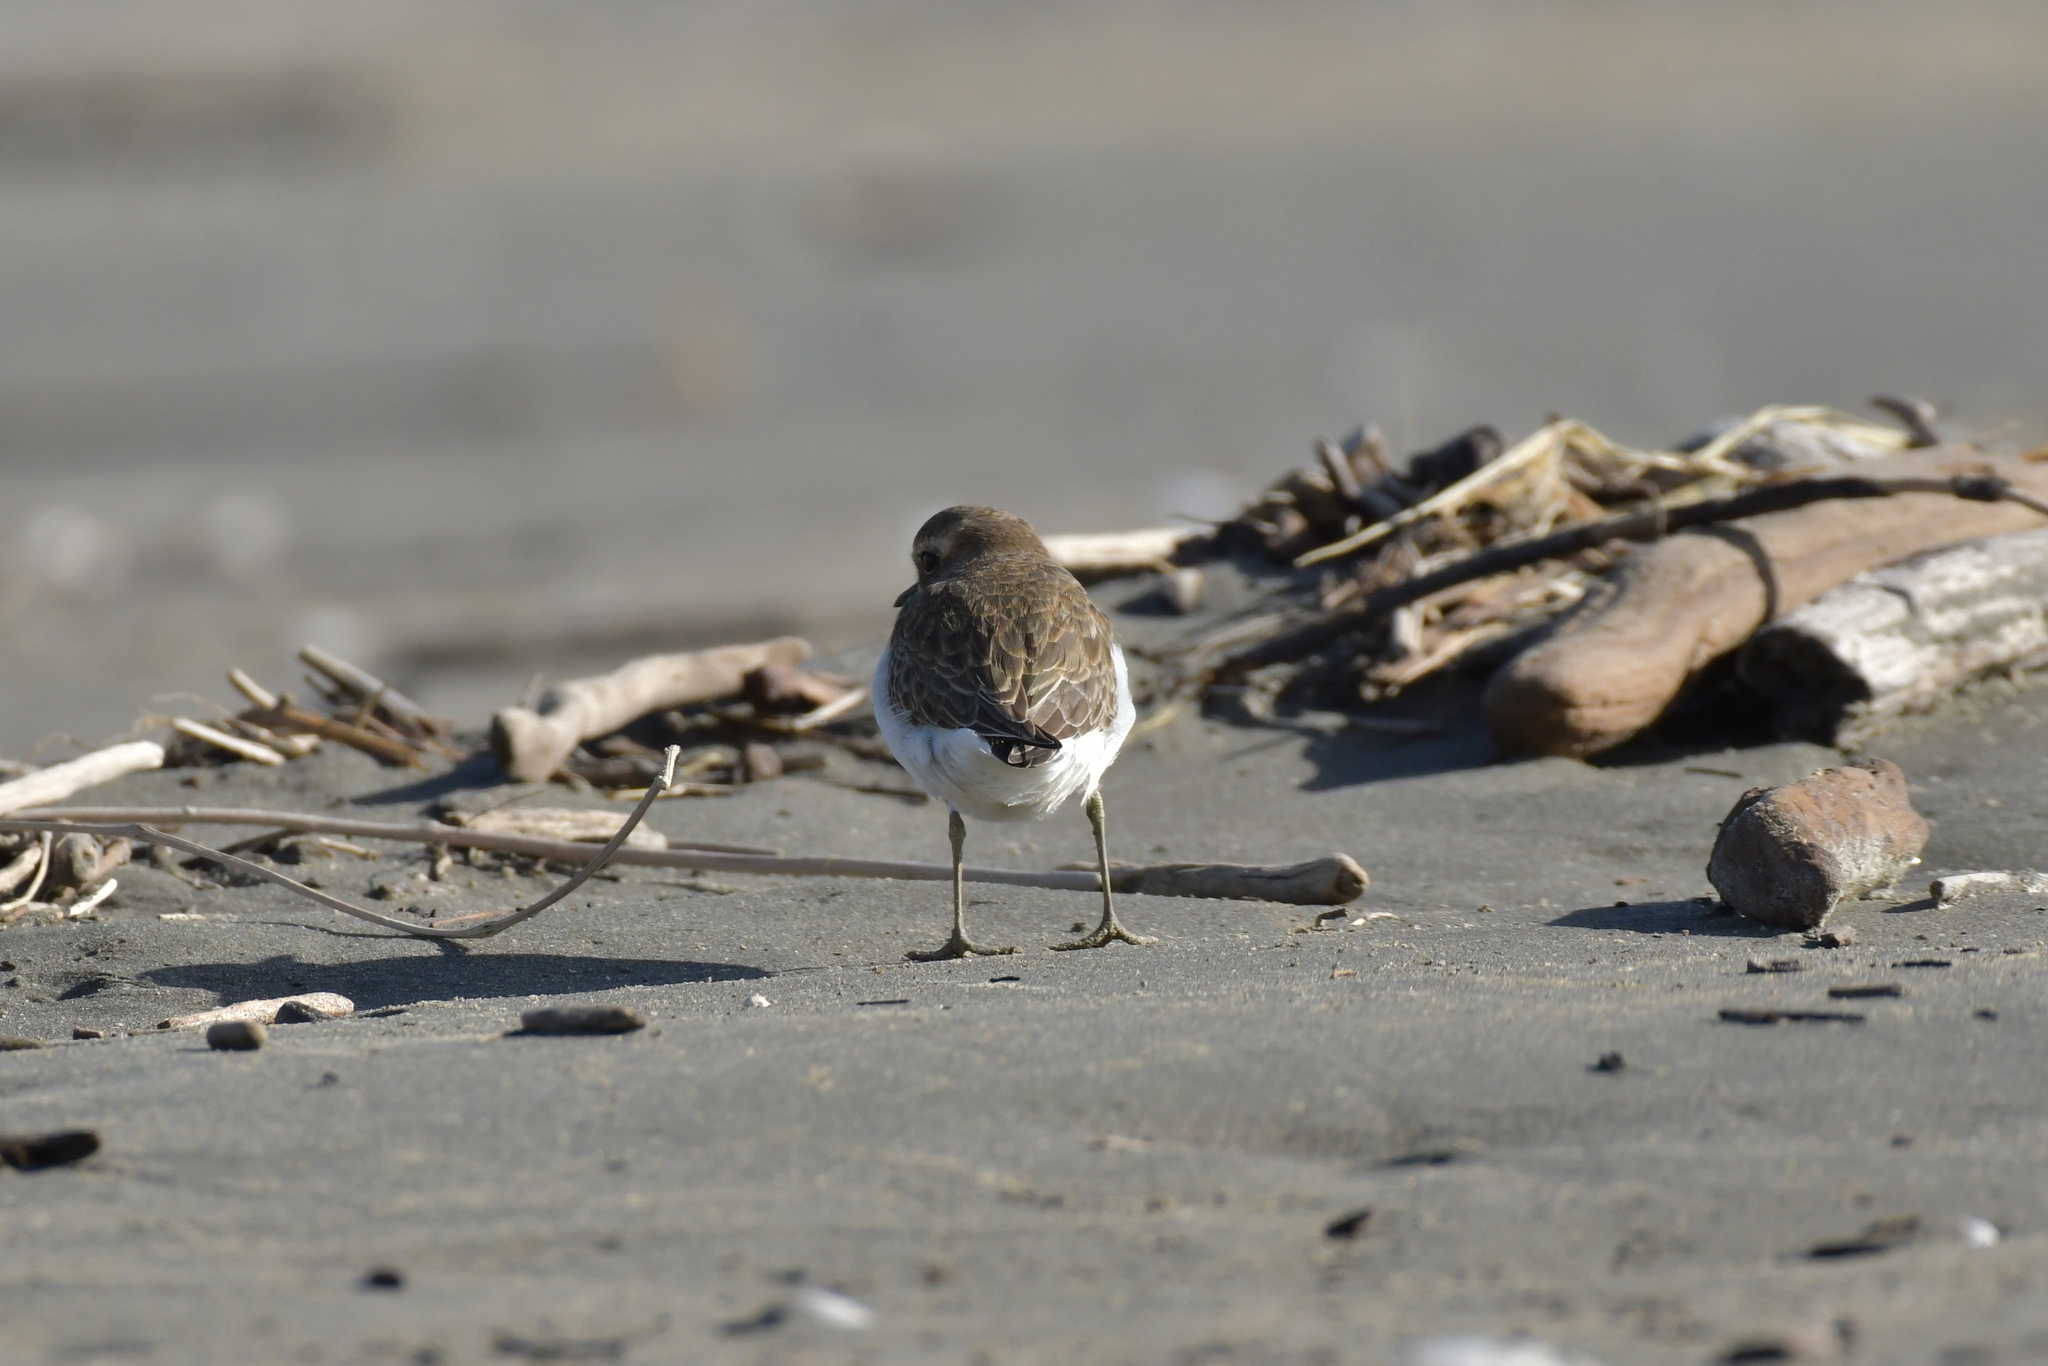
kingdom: Animalia
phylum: Chordata
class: Aves
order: Charadriiformes
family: Charadriidae
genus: Anarhynchus
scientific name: Anarhynchus
